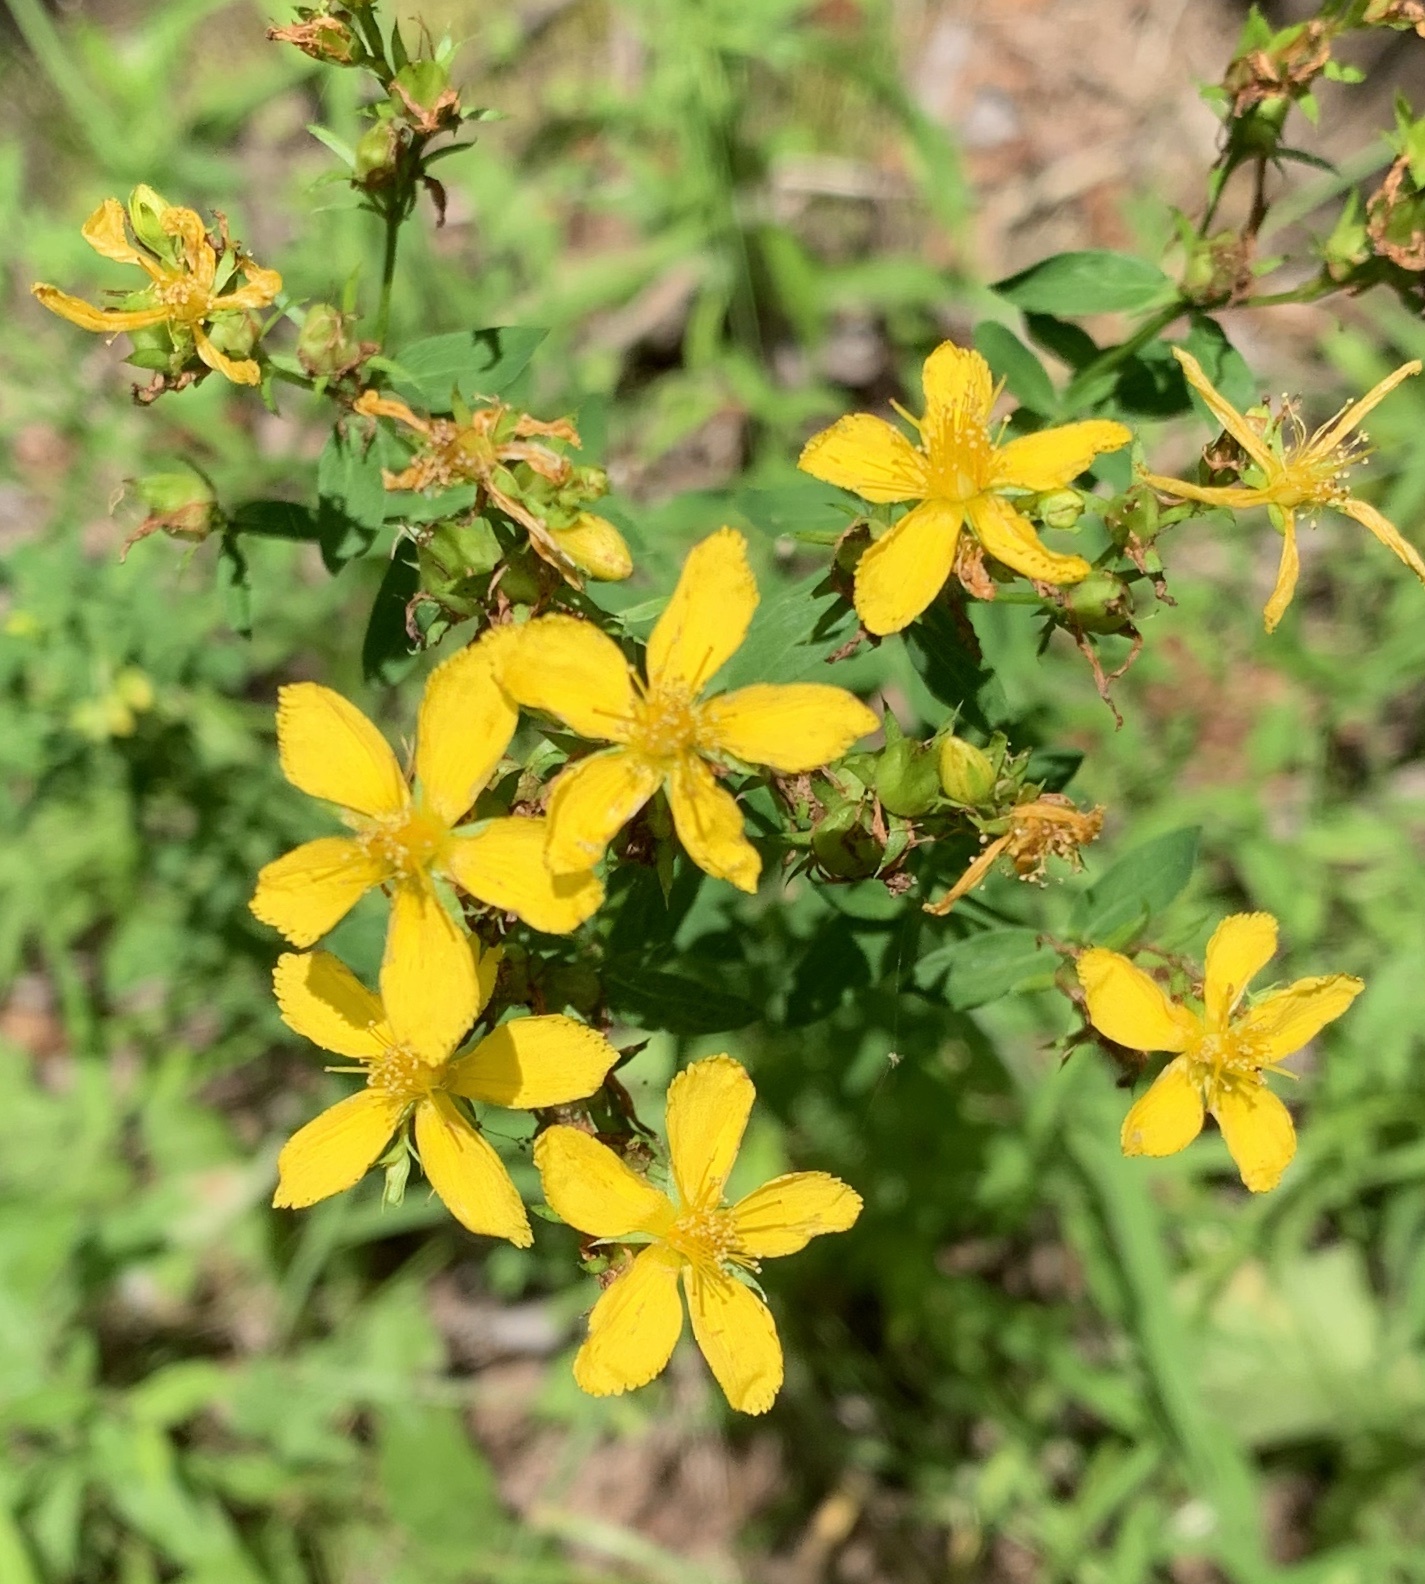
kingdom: Plantae
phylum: Tracheophyta
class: Magnoliopsida
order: Malpighiales
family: Hypericaceae
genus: Hypericum
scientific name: Hypericum perforatum
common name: Common st. johnswort
